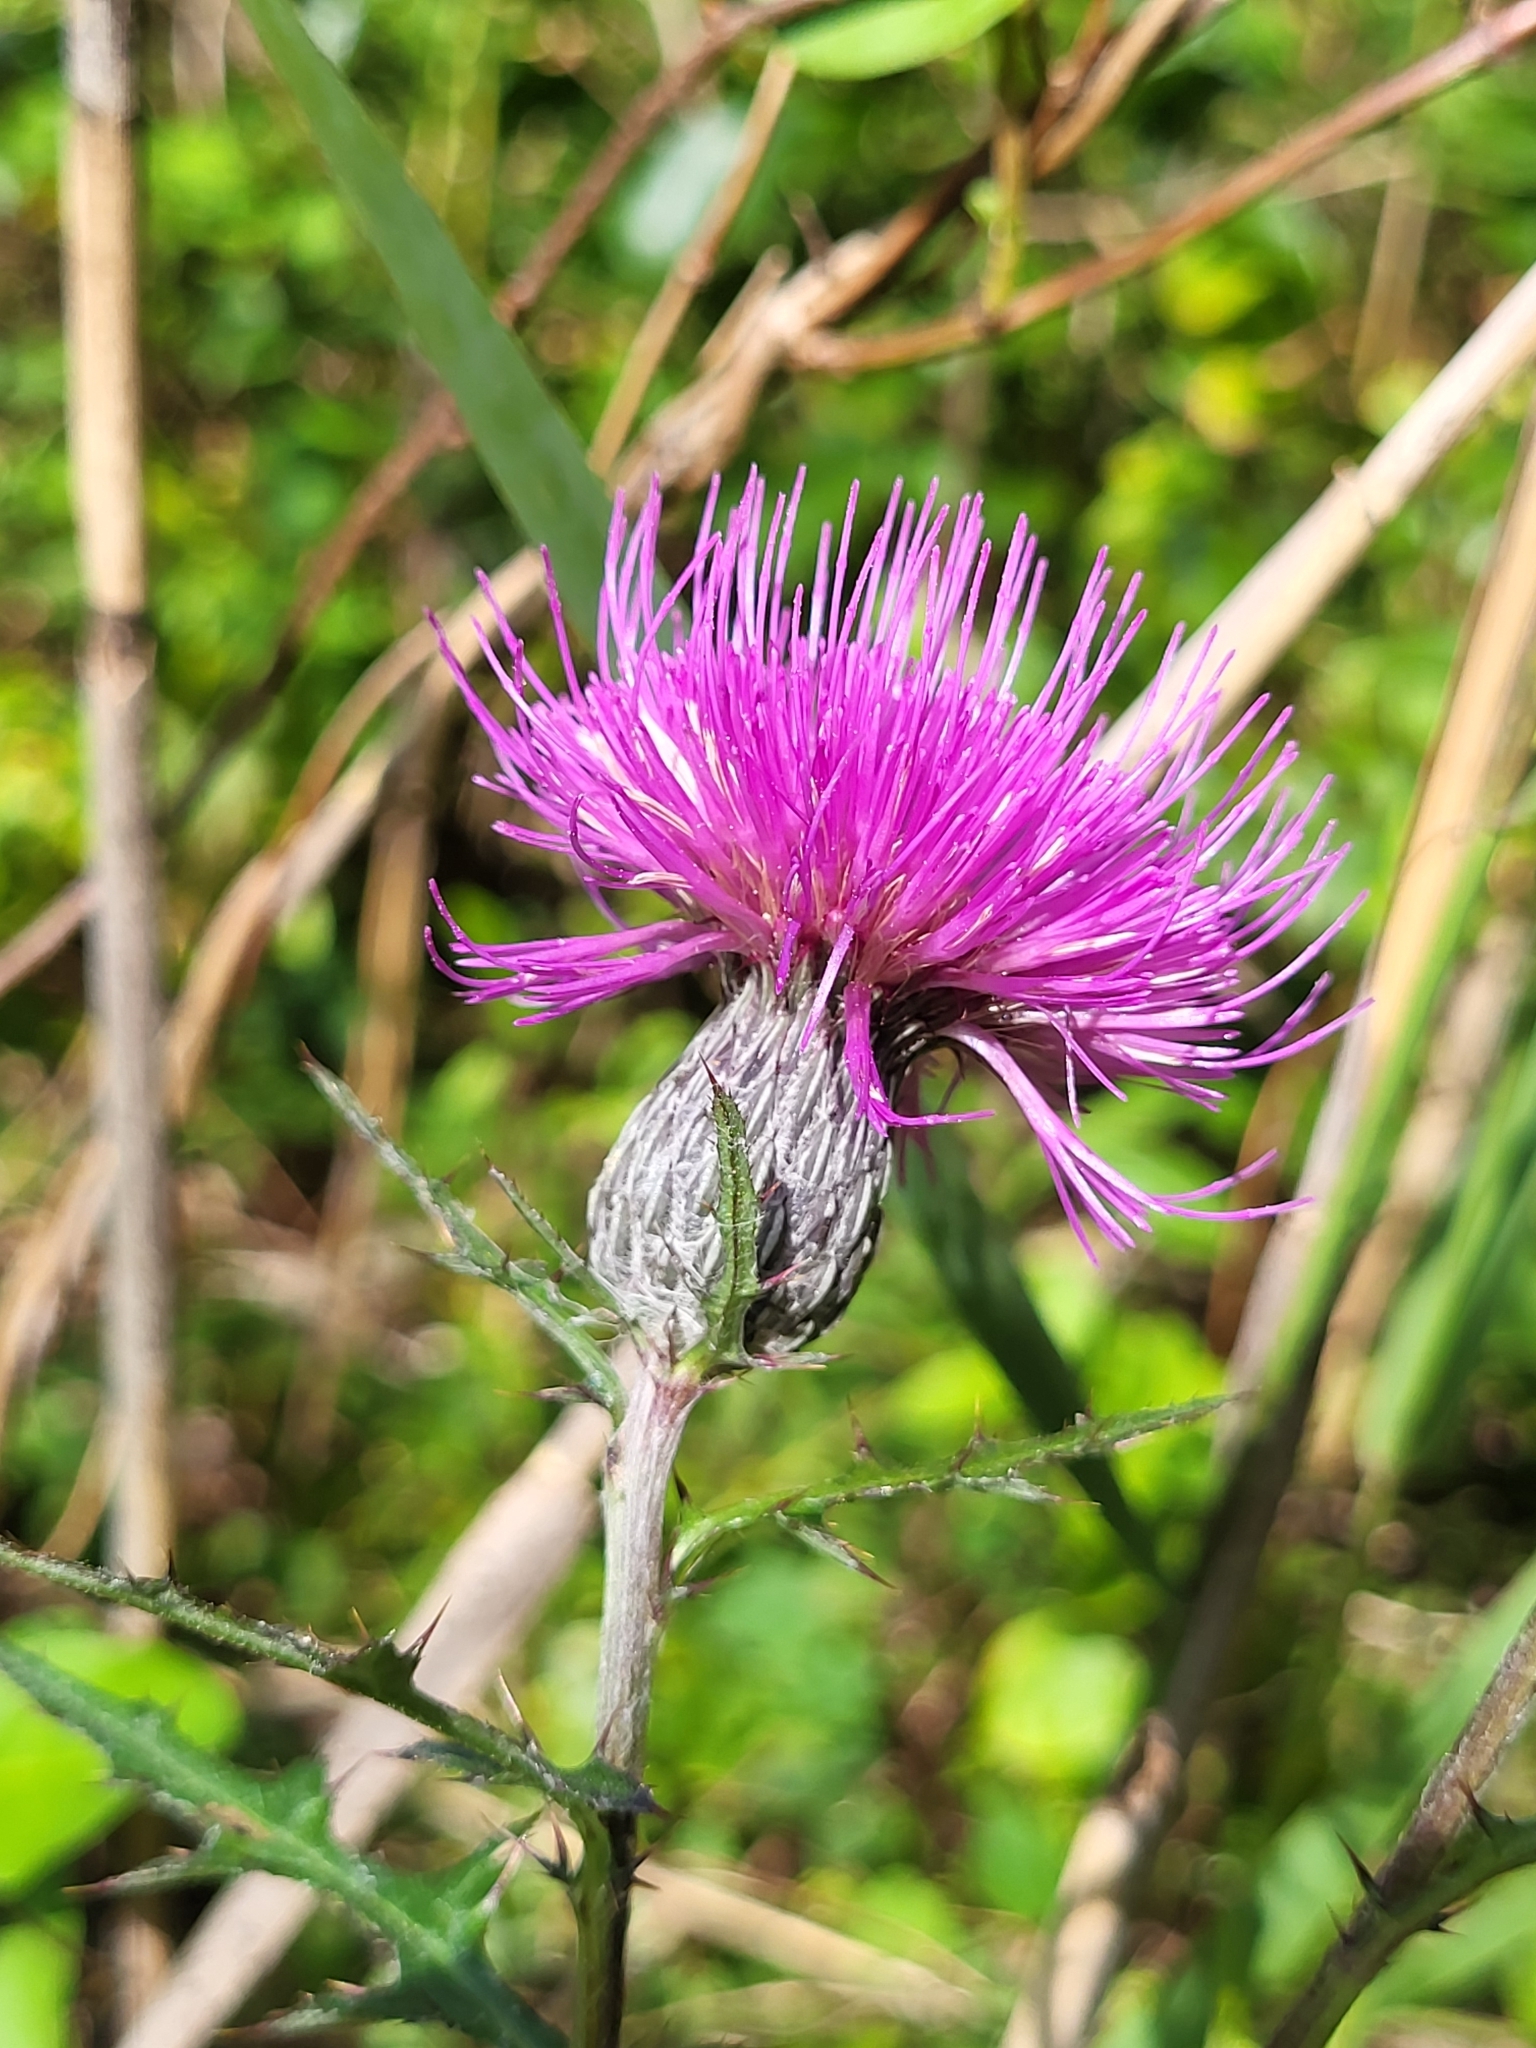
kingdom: Plantae
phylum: Tracheophyta
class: Magnoliopsida
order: Asterales
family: Asteraceae
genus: Cirsium
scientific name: Cirsium muticum
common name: Dunce-nettle
